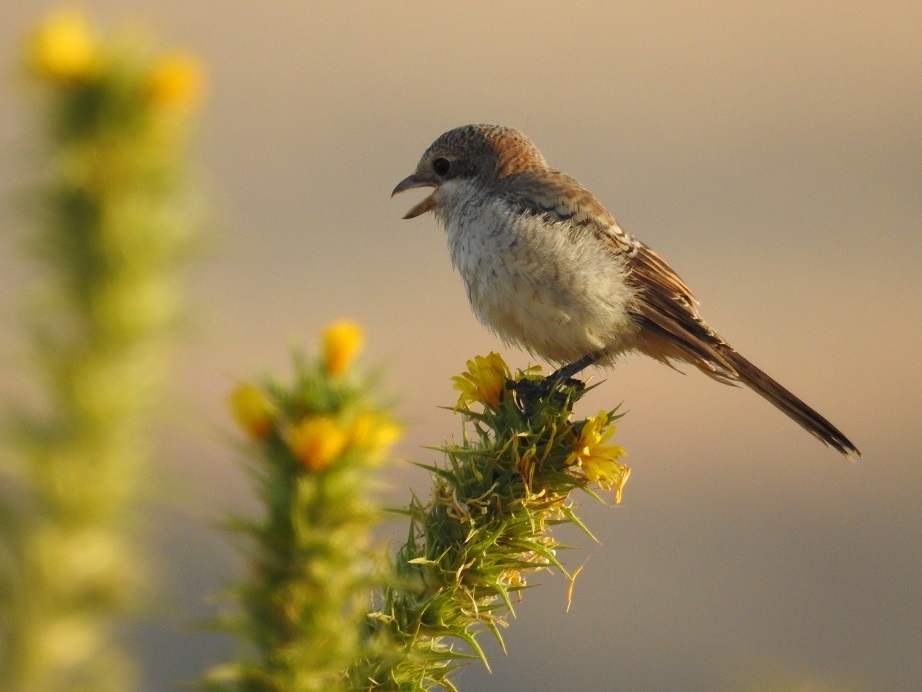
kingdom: Animalia
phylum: Chordata
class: Aves
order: Passeriformes
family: Laniidae
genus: Lanius
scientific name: Lanius senator
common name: Woodchat shrike
